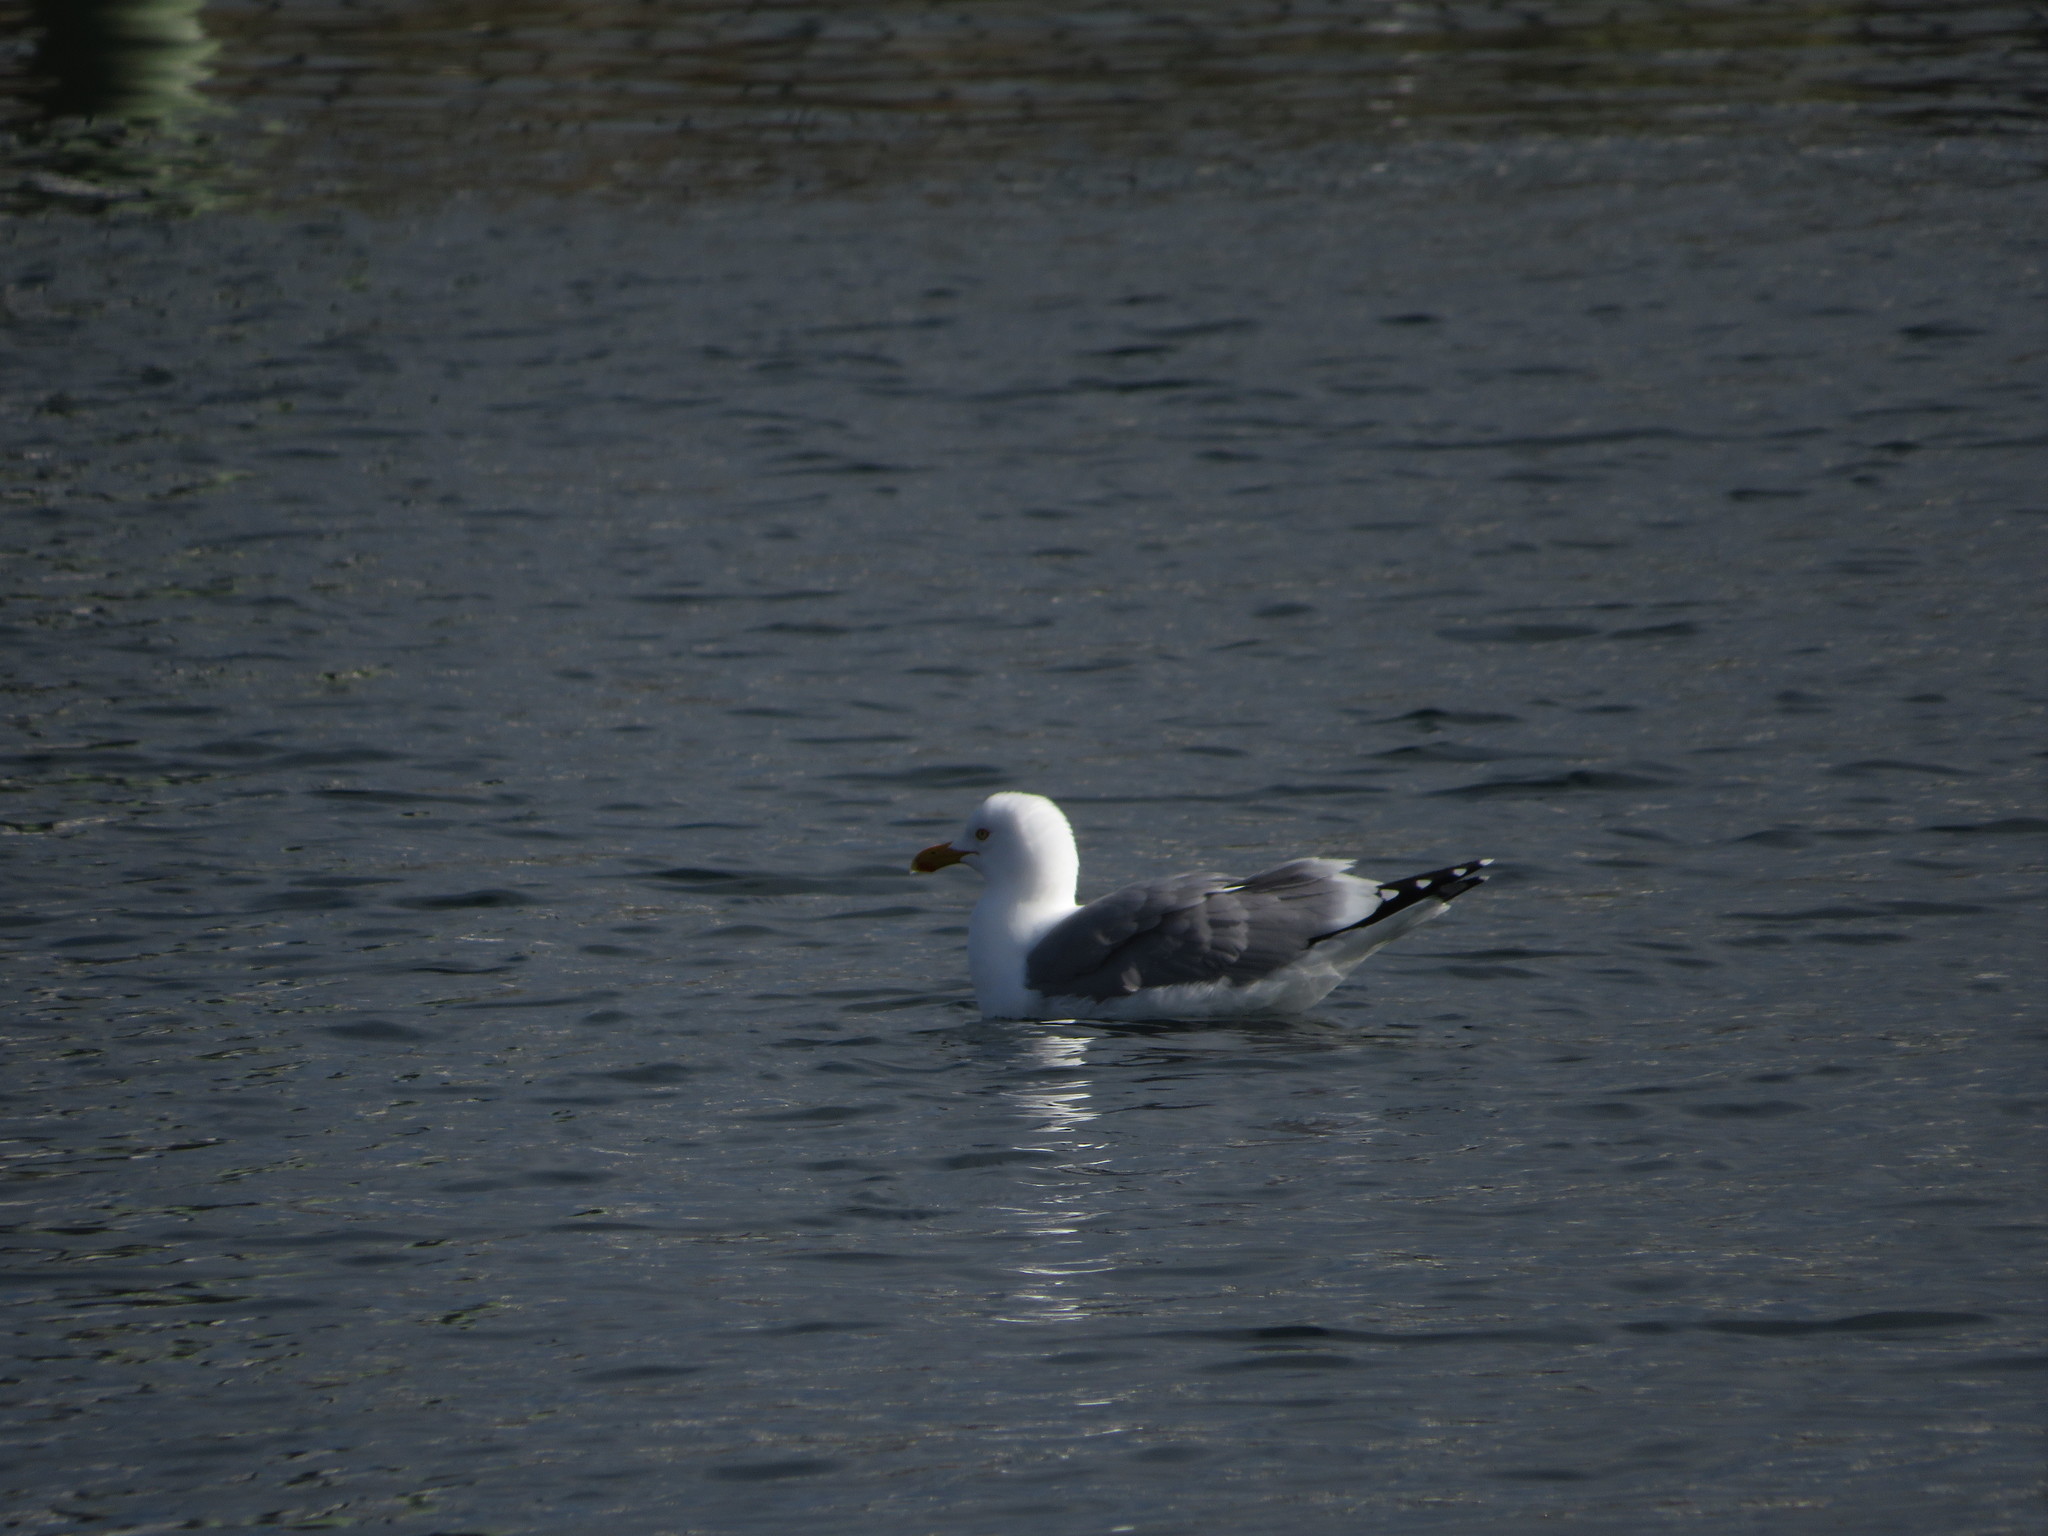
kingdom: Animalia
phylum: Chordata
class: Aves
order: Charadriiformes
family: Laridae
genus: Larus
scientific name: Larus argentatus
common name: Herring gull
